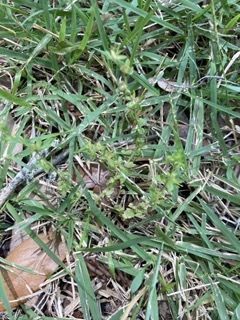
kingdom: Plantae
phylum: Tracheophyta
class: Magnoliopsida
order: Lamiales
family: Plantaginaceae
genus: Veronica
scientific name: Veronica arvensis
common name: Corn speedwell
